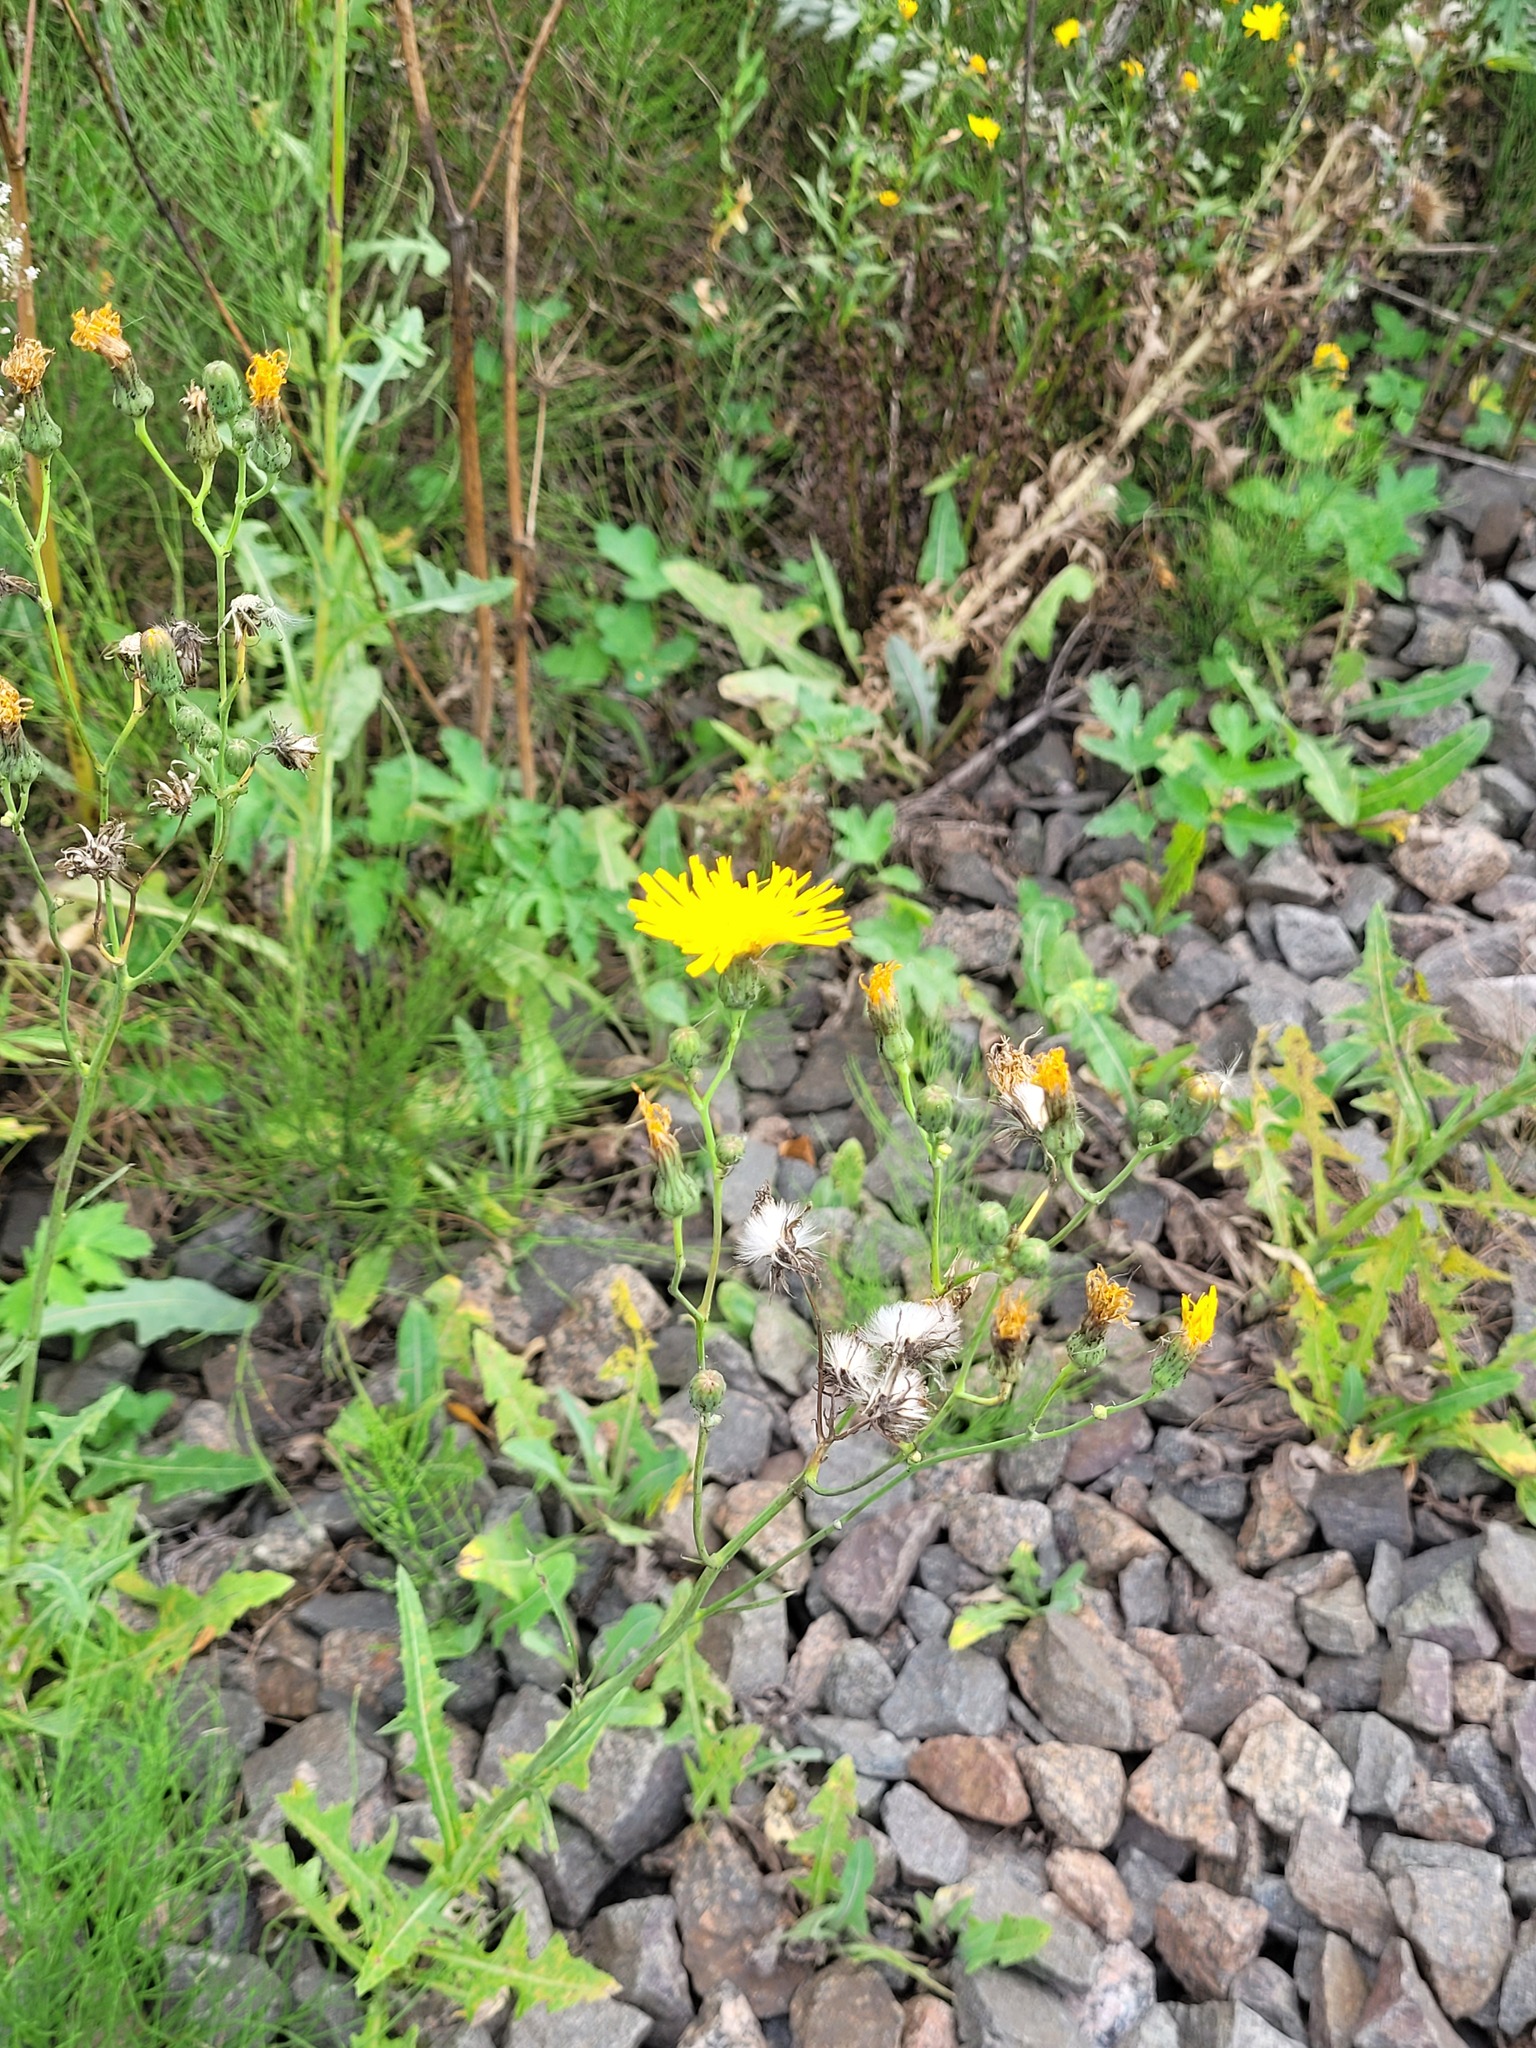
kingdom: Plantae
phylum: Tracheophyta
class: Magnoliopsida
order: Asterales
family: Asteraceae
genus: Sonchus
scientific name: Sonchus arvensis
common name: Perennial sow-thistle
